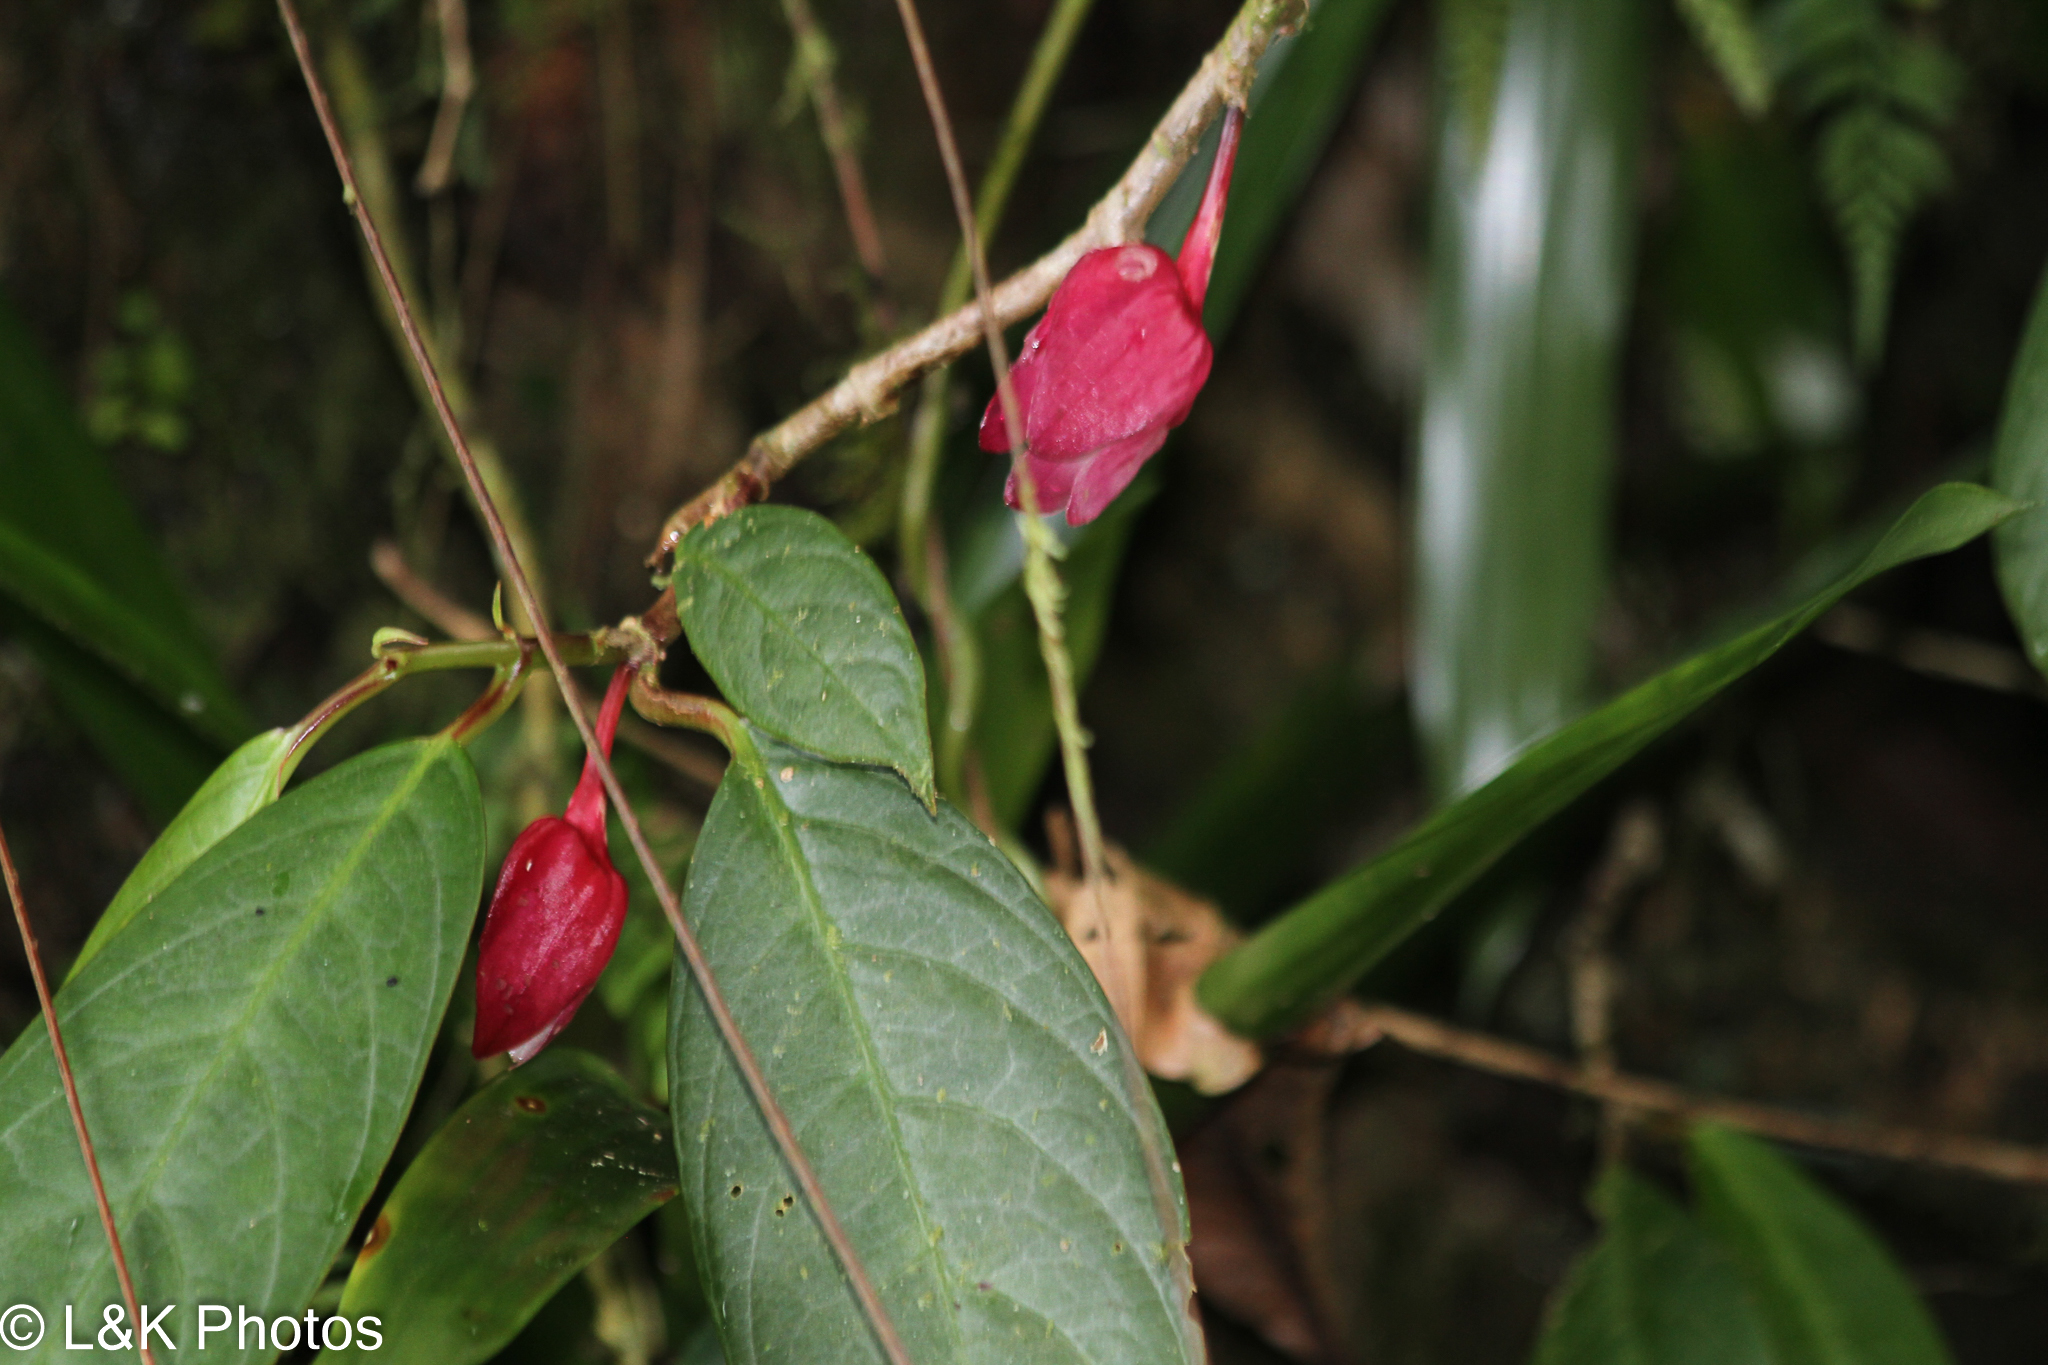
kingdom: Plantae
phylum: Tracheophyta
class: Magnoliopsida
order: Lamiales
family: Gesneriaceae
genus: Drymonia
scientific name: Drymonia conchocalyx
